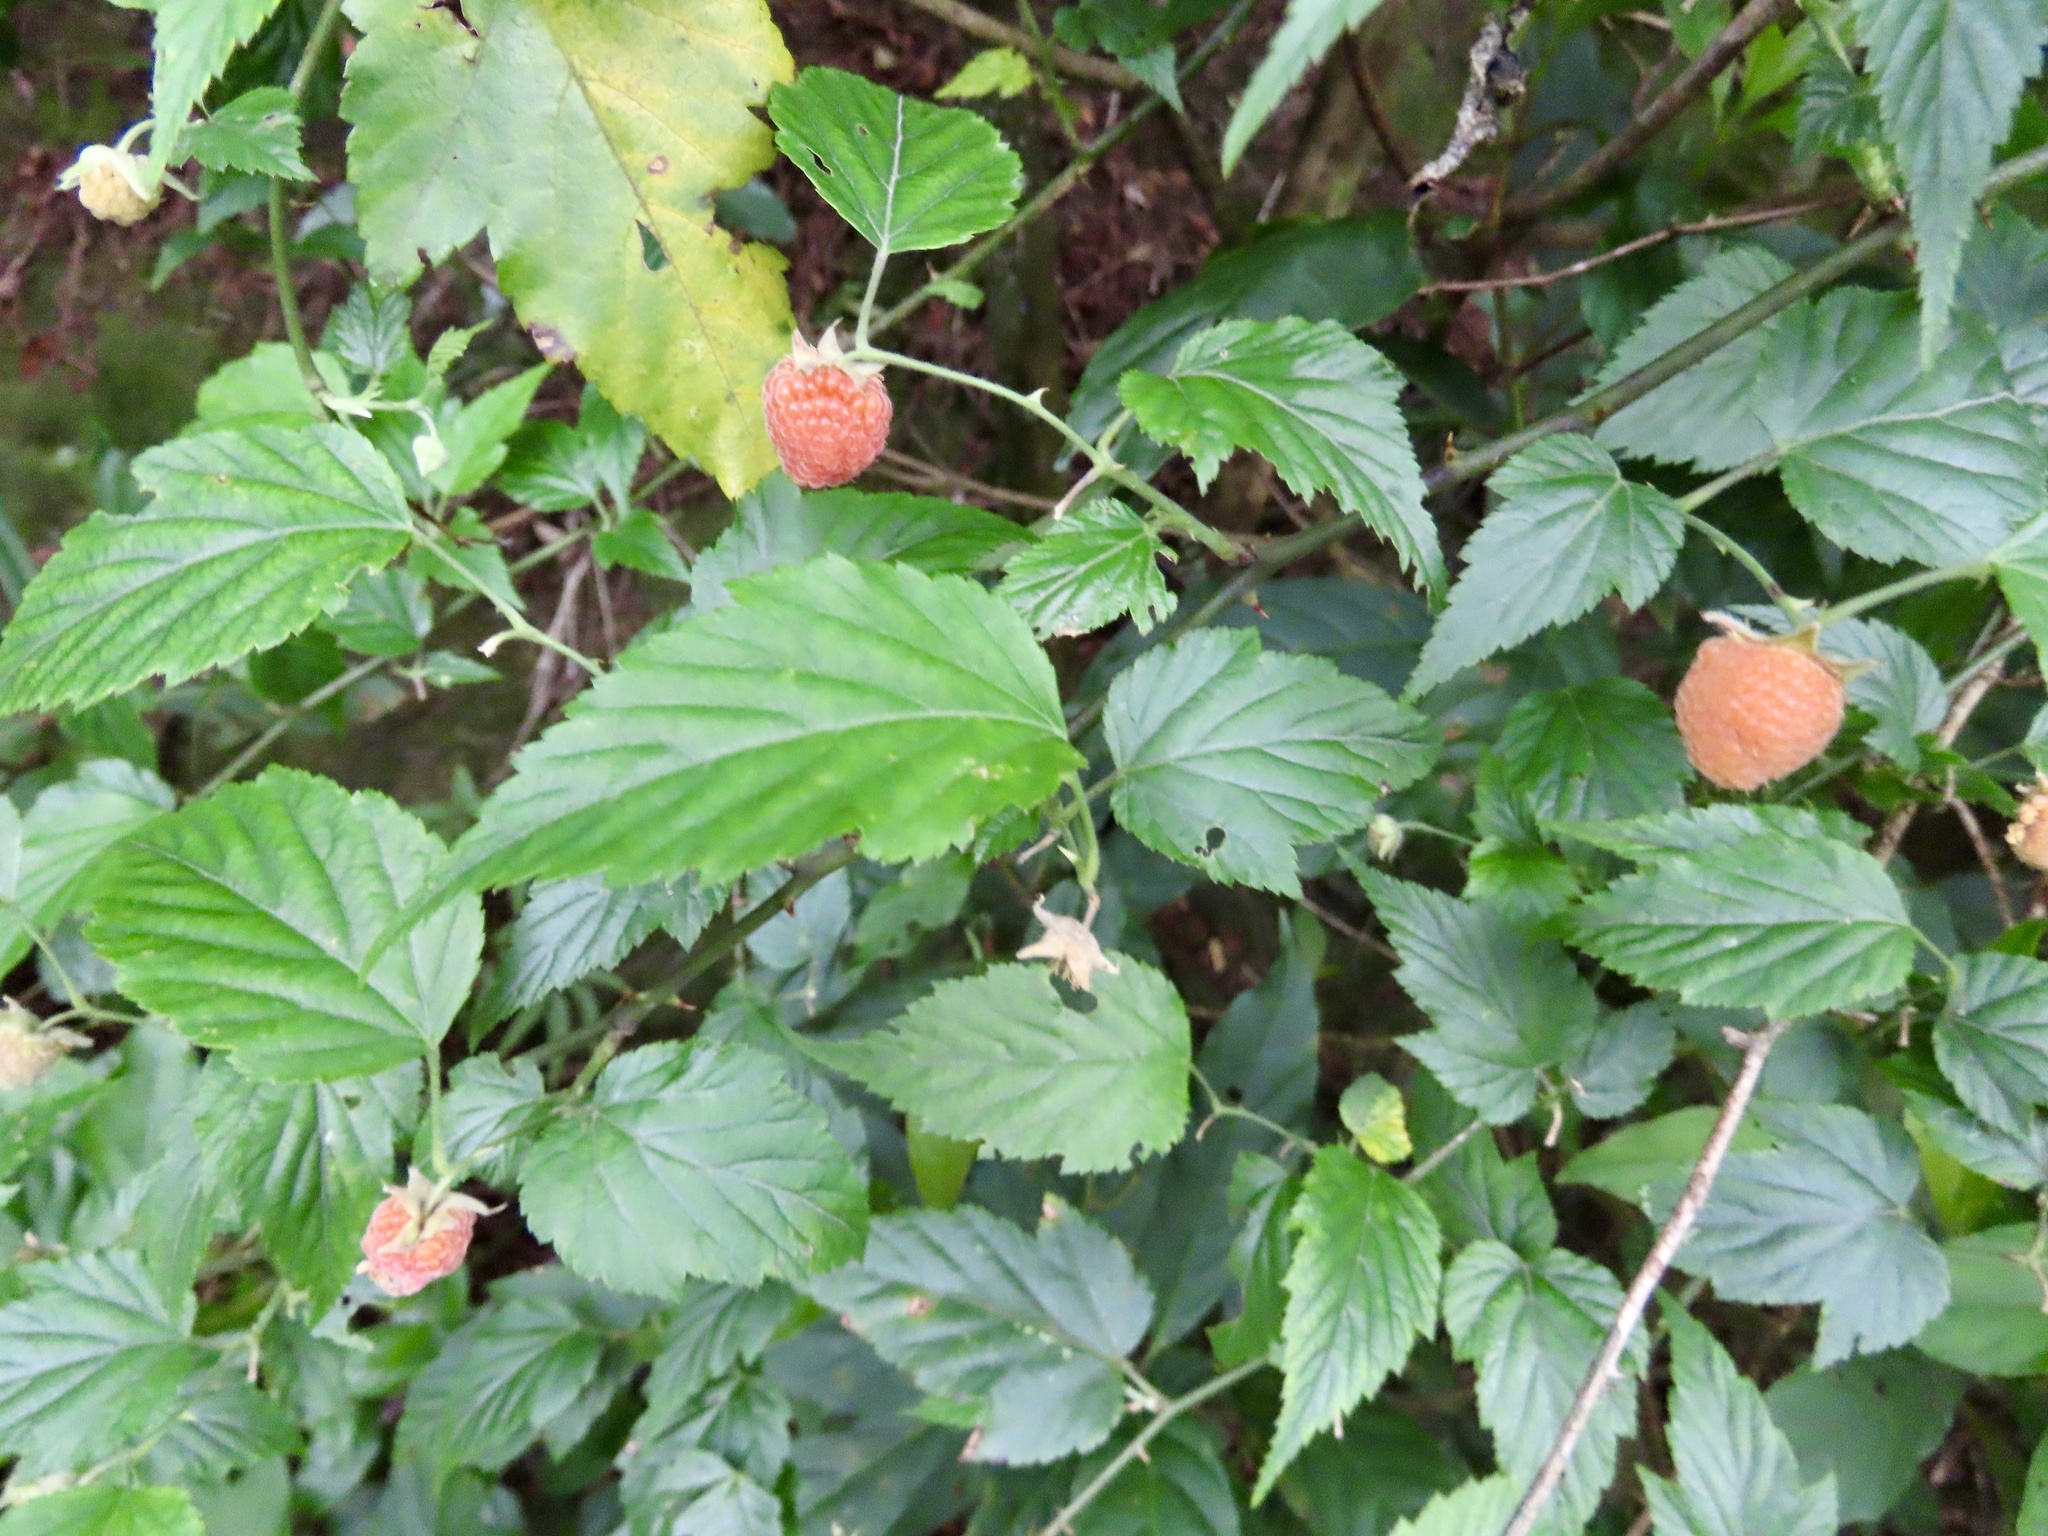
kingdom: Plantae
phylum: Tracheophyta
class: Magnoliopsida
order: Rosales
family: Rosaceae
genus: Rubus
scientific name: Rubus corchorifolius
